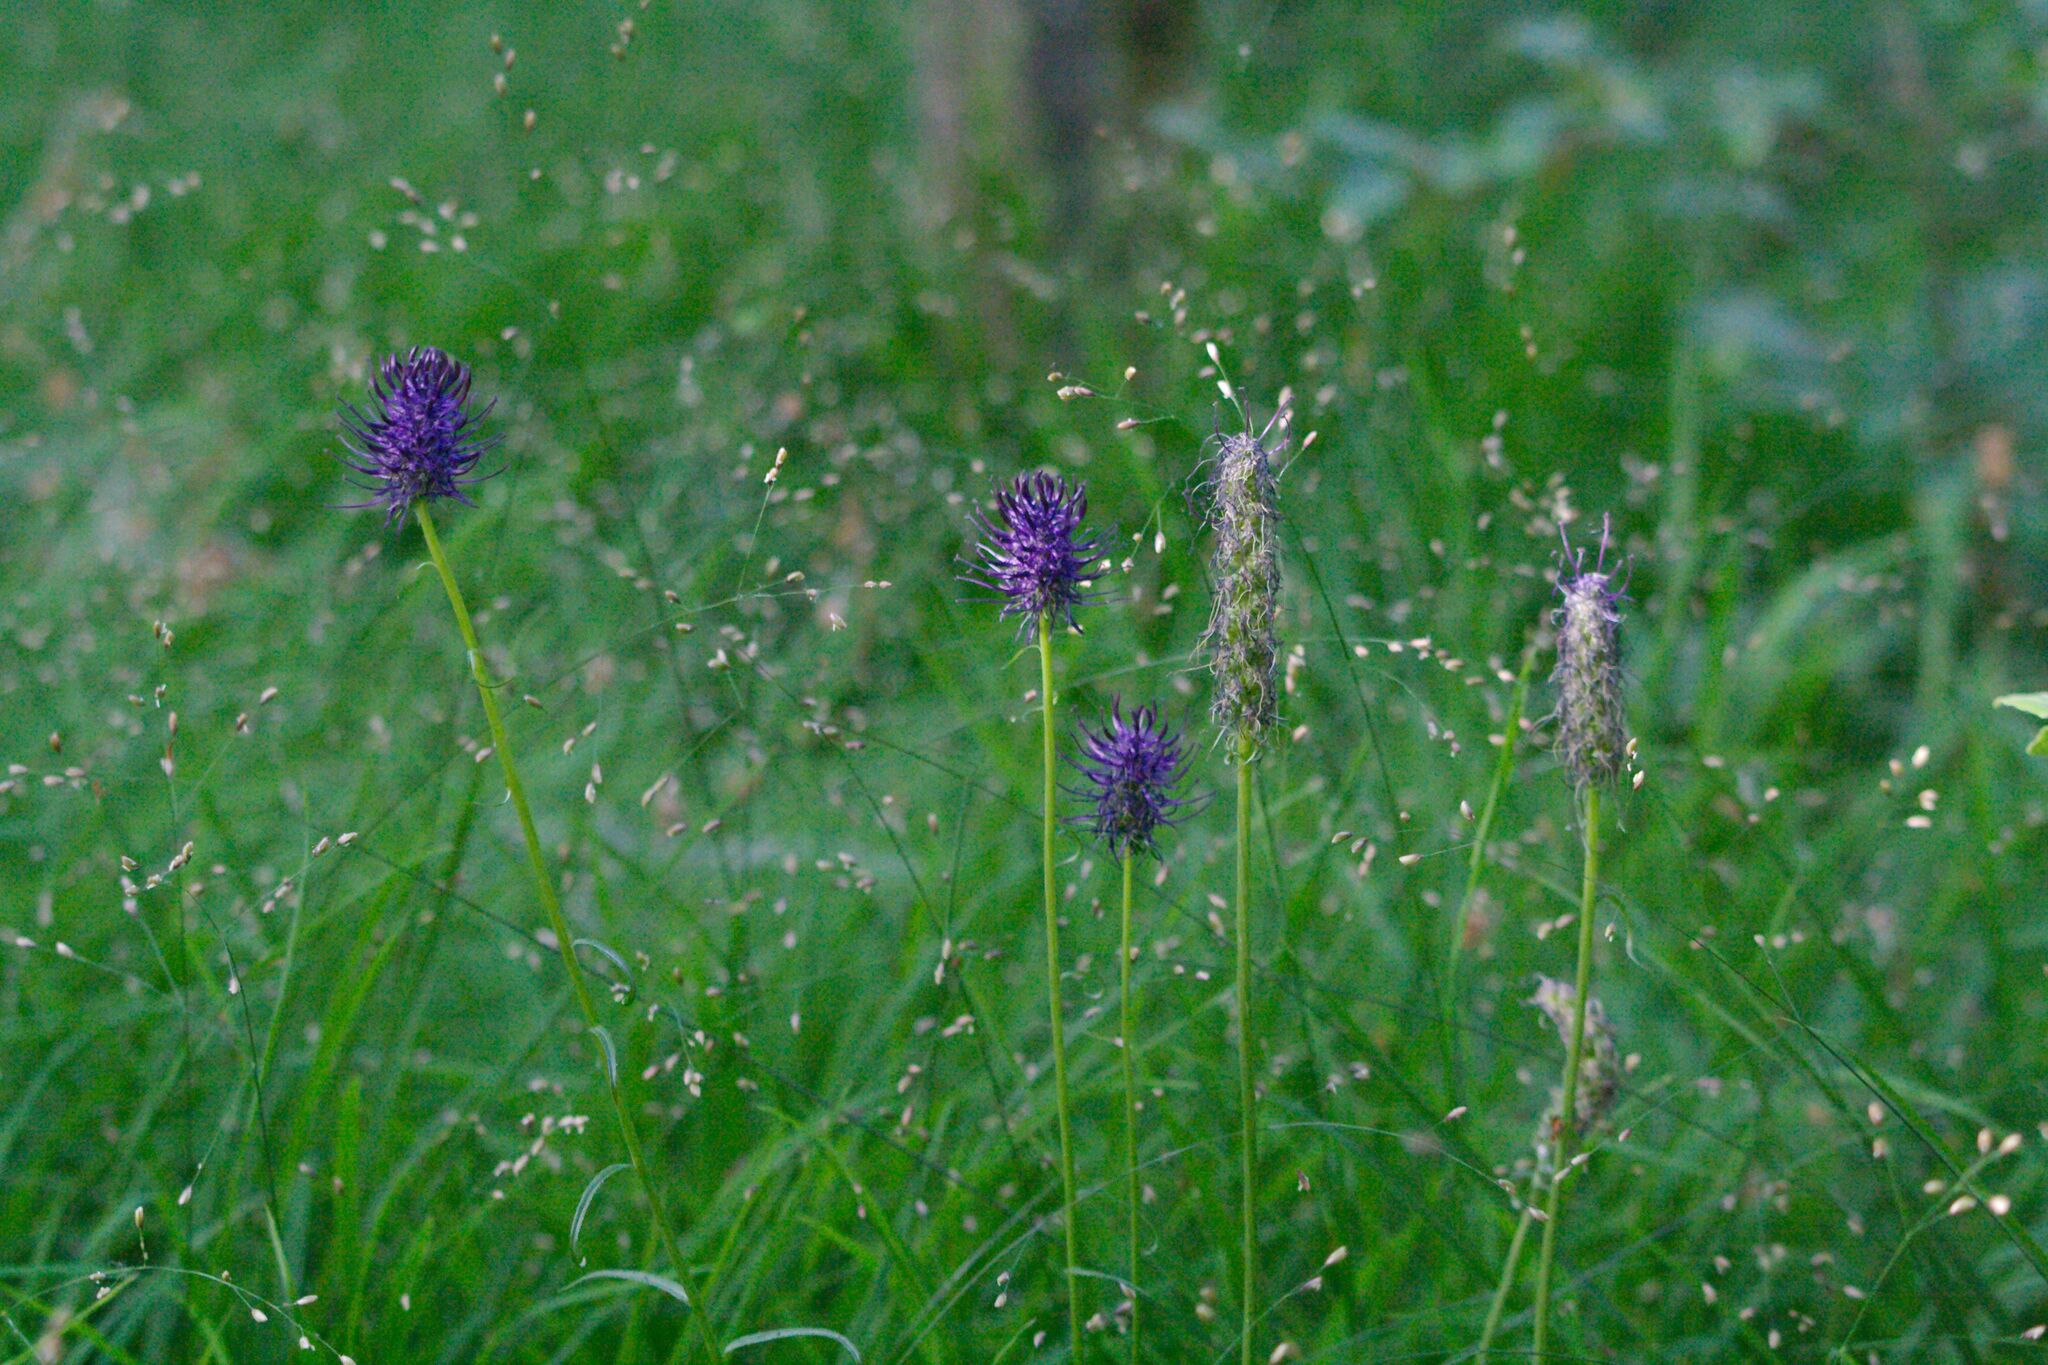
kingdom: Plantae
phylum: Tracheophyta
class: Magnoliopsida
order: Asterales
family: Campanulaceae
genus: Phyteuma
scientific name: Phyteuma nigrum
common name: Black rampion
